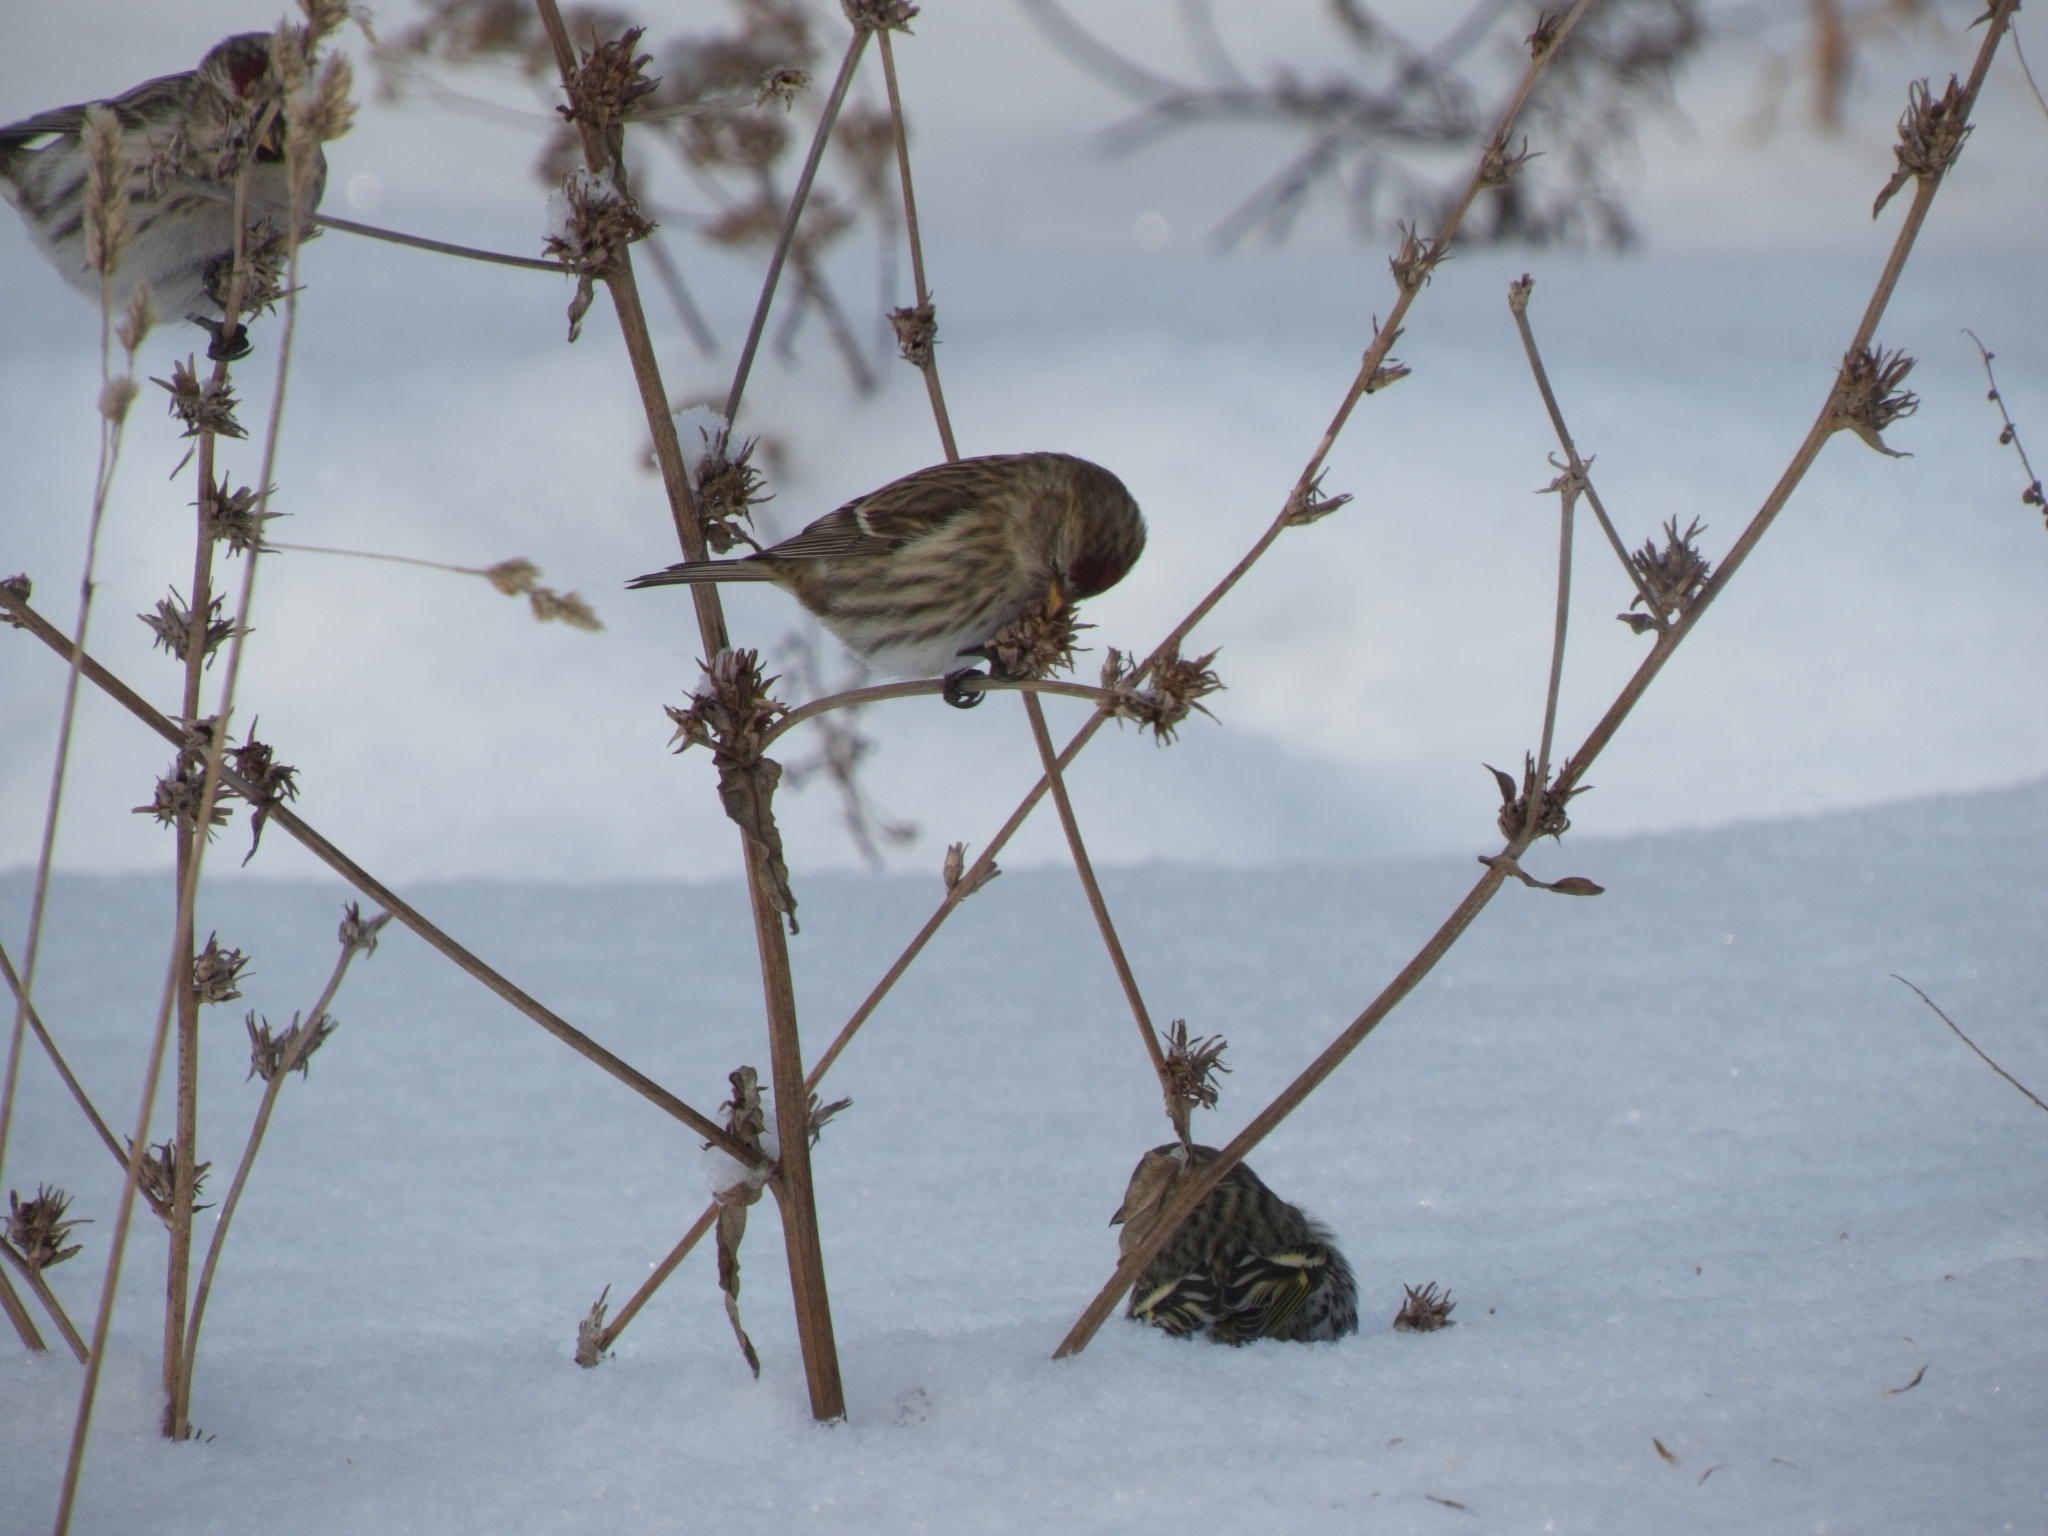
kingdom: Animalia
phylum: Chordata
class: Aves
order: Passeriformes
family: Fringillidae
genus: Acanthis
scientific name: Acanthis flammea
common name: Common redpoll
